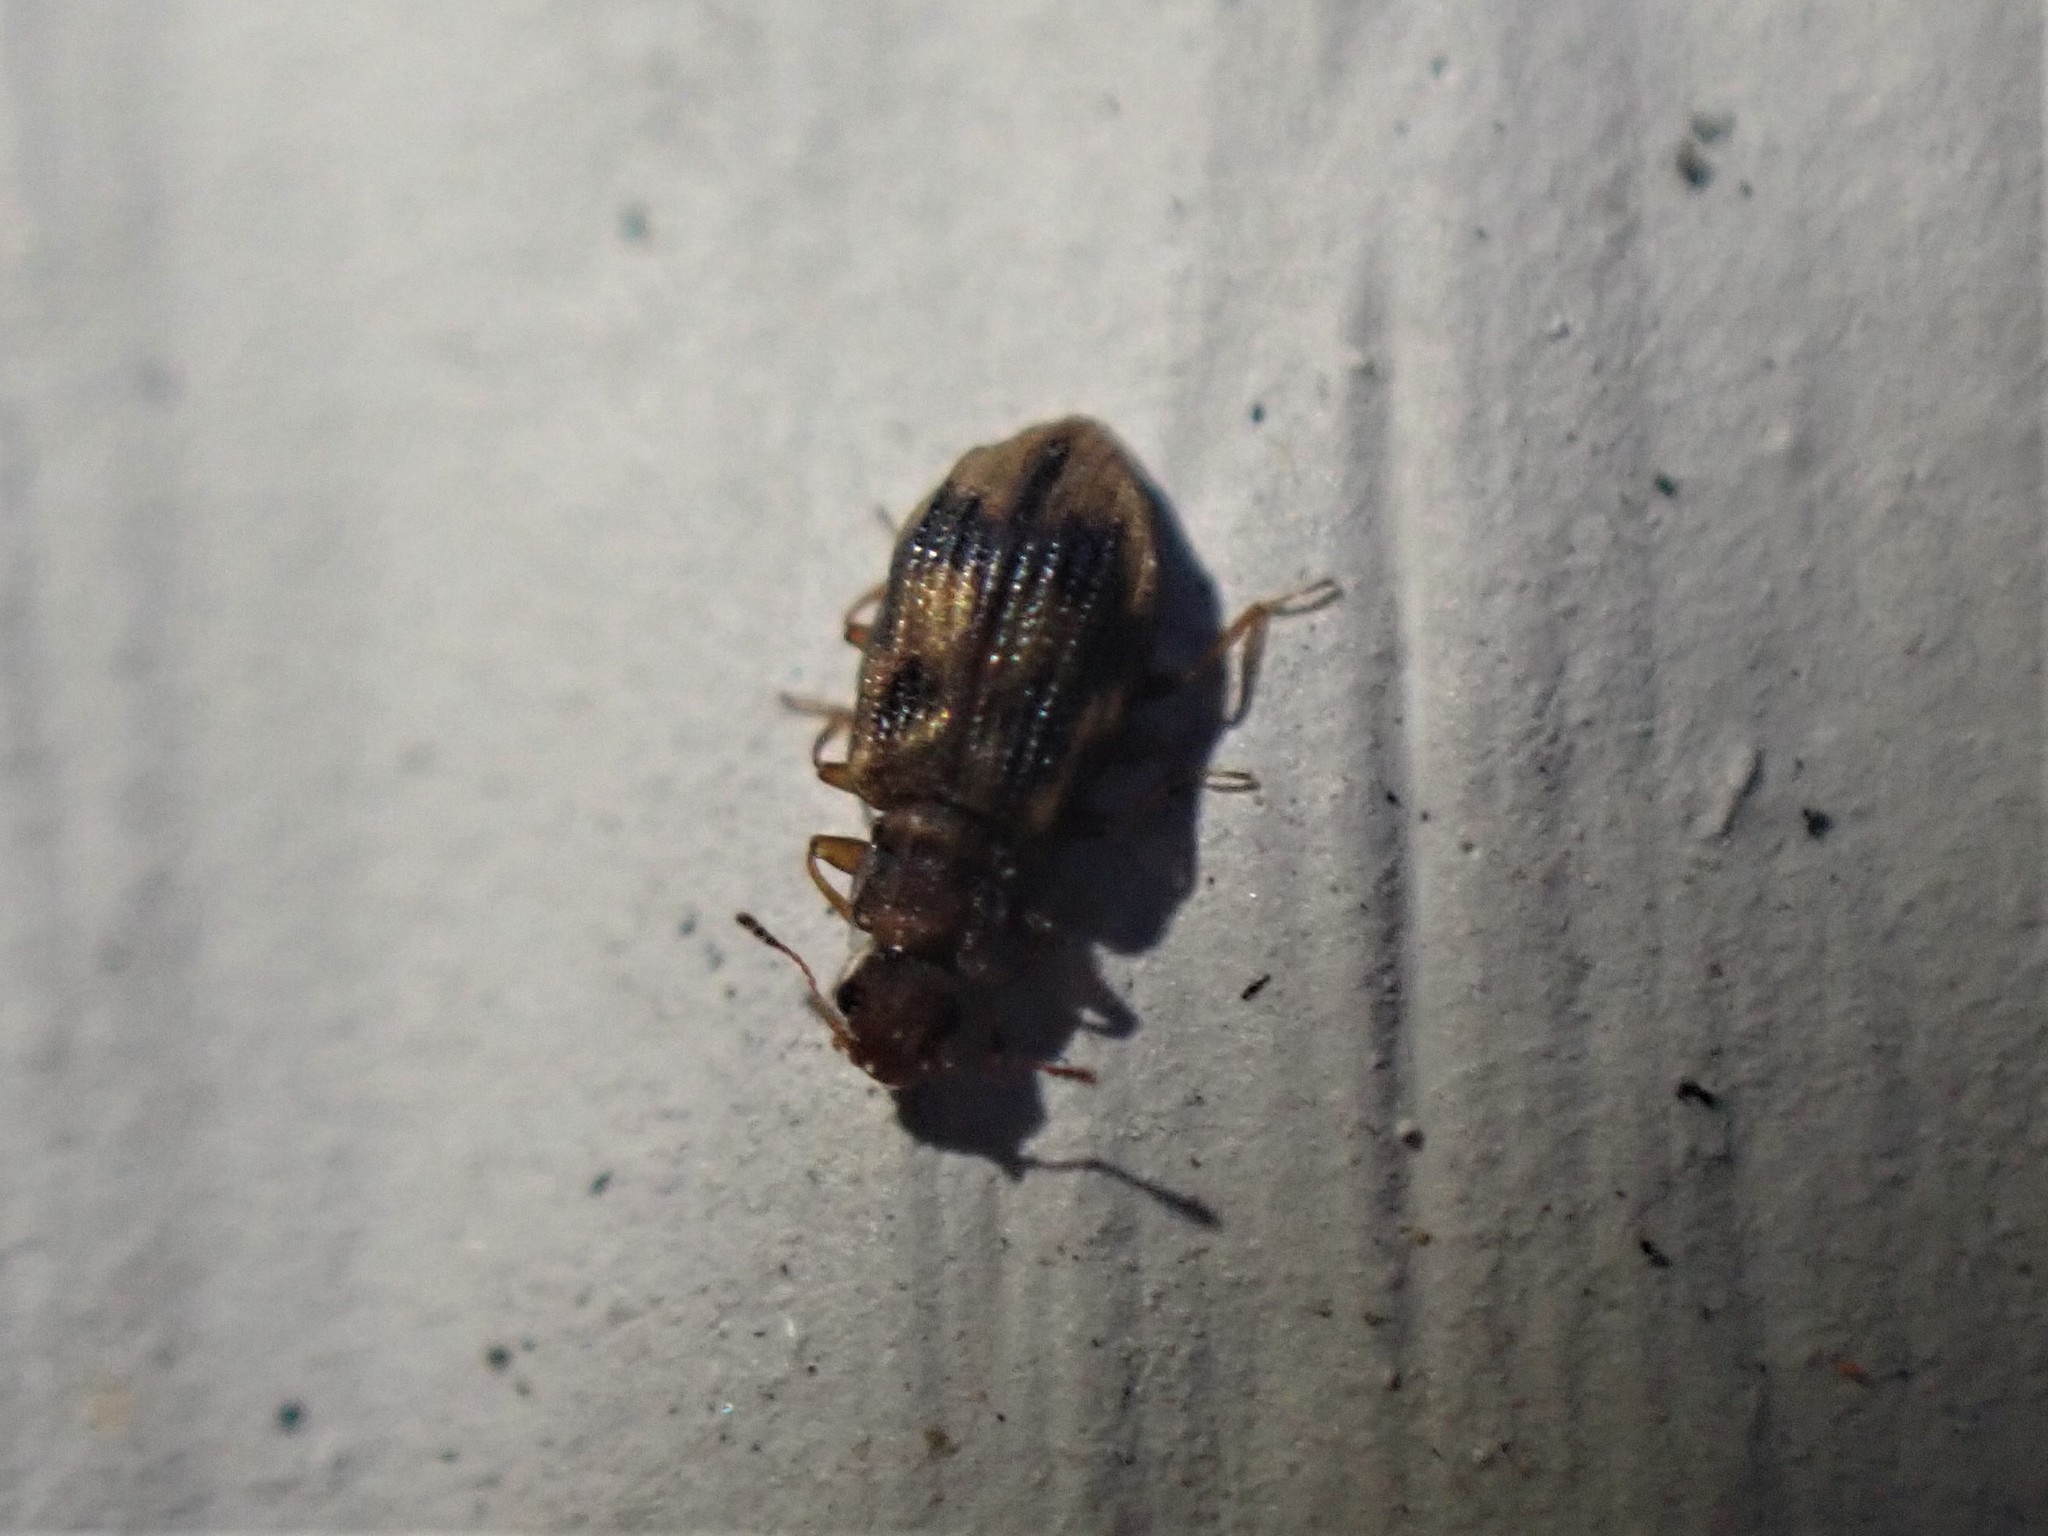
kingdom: Animalia
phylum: Arthropoda
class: Insecta
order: Coleoptera
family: Latridiidae
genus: Cartodere
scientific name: Cartodere bifasciata
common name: Plaster beetle
